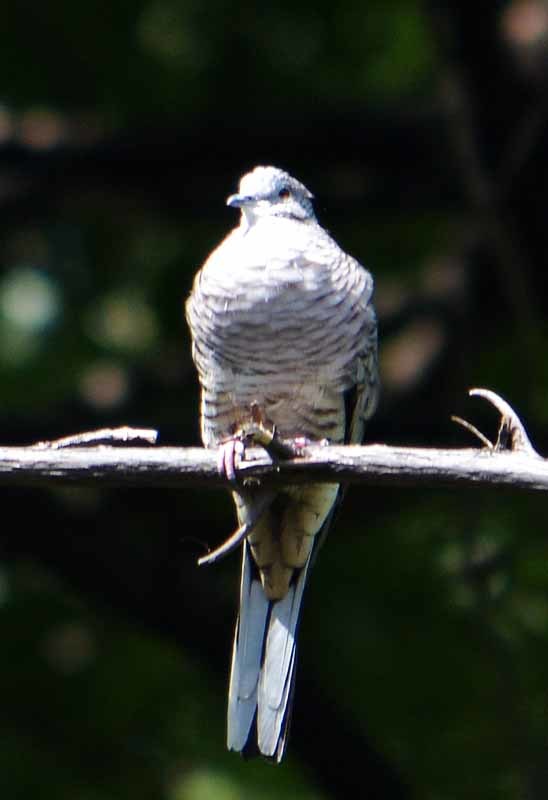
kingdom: Animalia
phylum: Chordata
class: Aves
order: Columbiformes
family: Columbidae
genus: Columbina
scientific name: Columbina inca
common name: Inca dove
